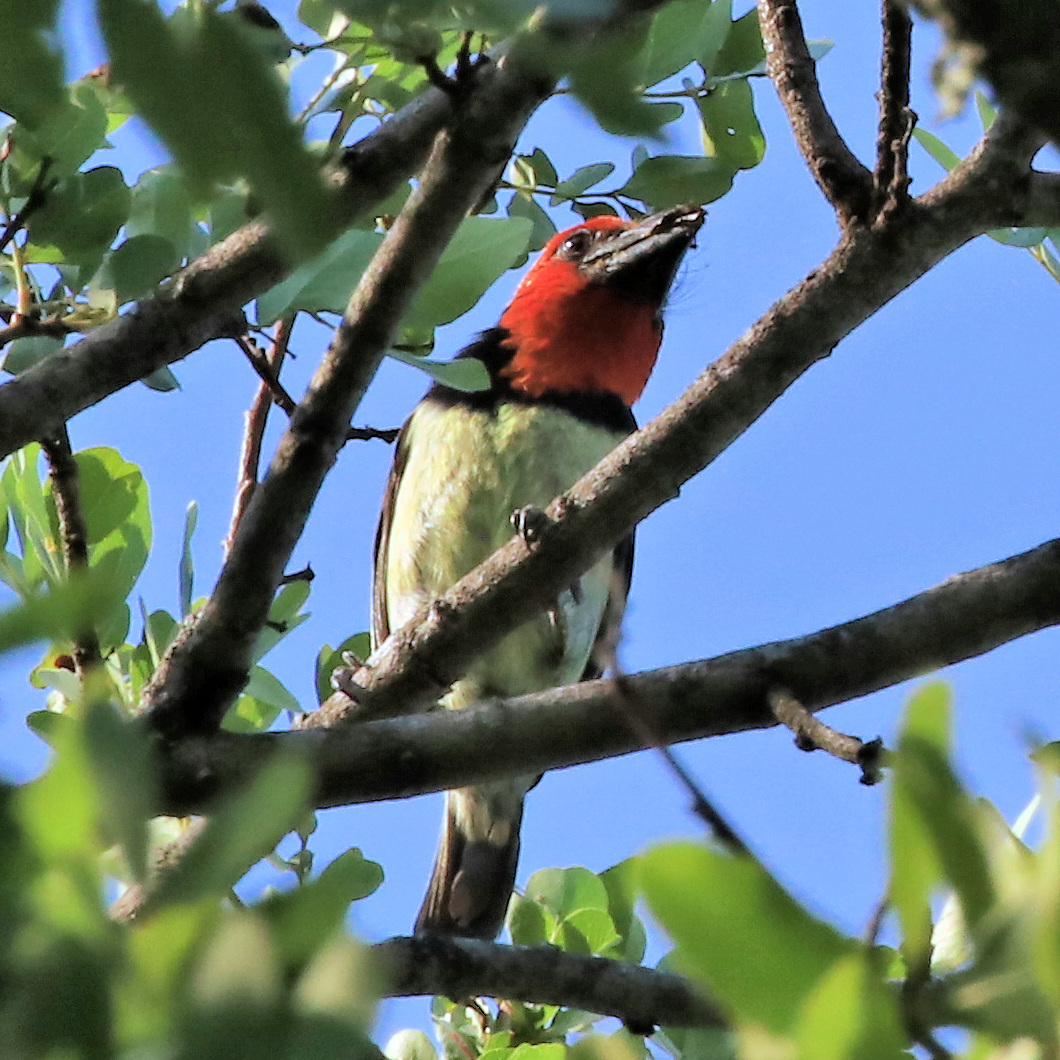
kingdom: Animalia
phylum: Chordata
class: Aves
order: Piciformes
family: Lybiidae
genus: Lybius
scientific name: Lybius torquatus
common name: Black-collared barbet
